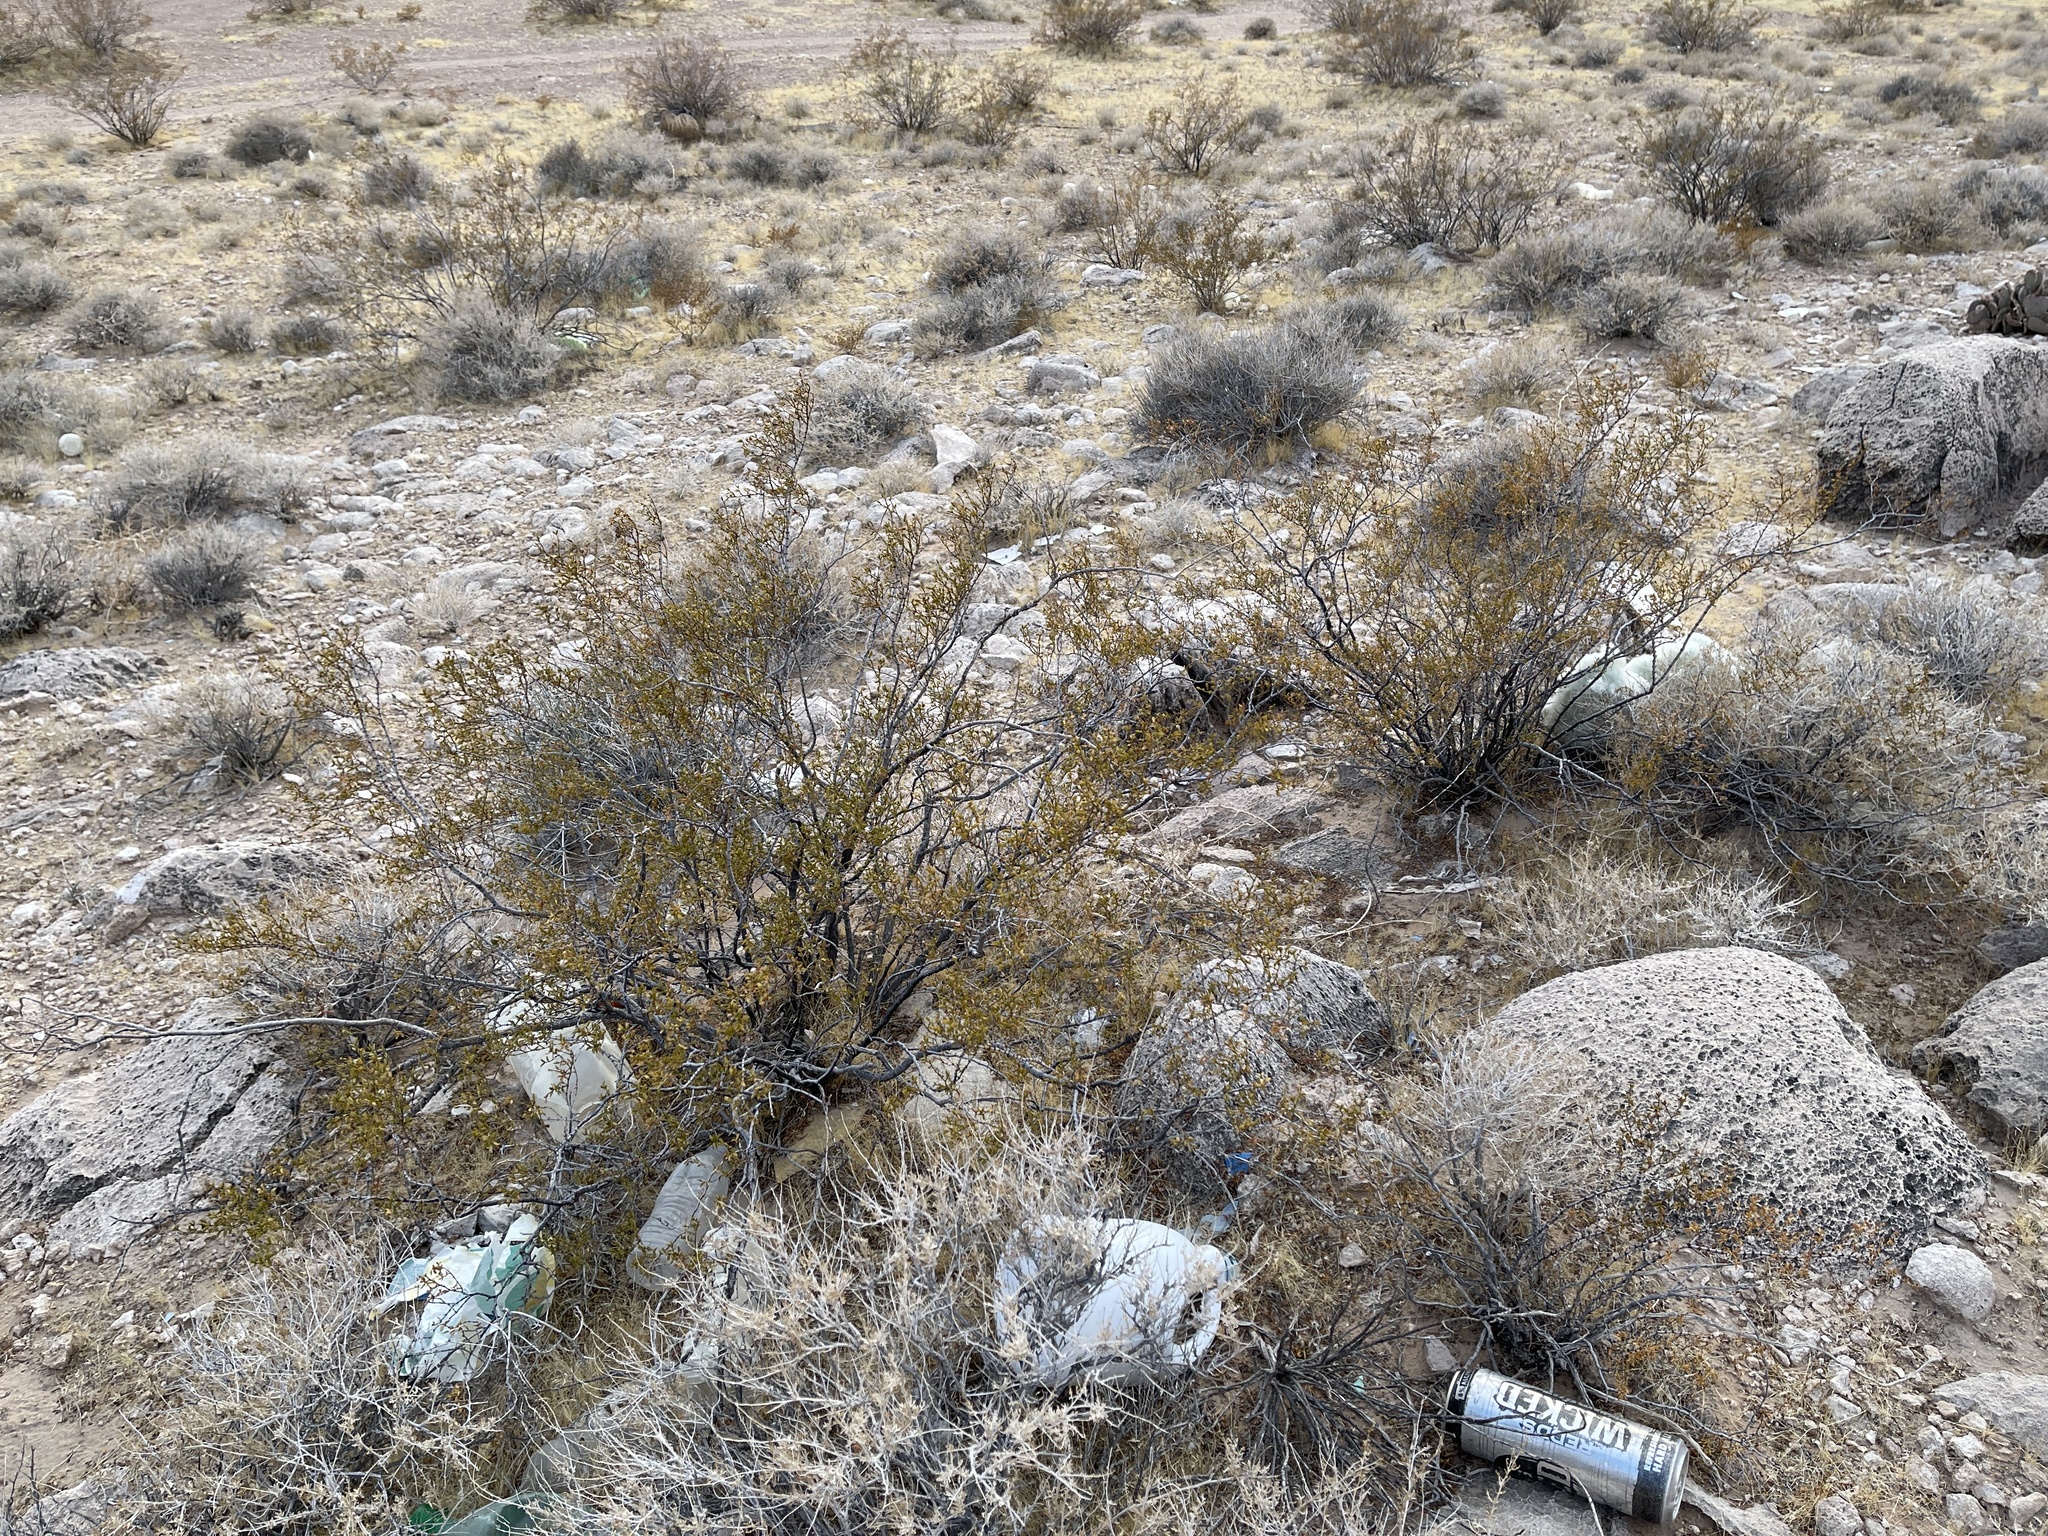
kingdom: Plantae
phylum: Tracheophyta
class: Magnoliopsida
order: Zygophyllales
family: Zygophyllaceae
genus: Larrea
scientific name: Larrea tridentata
